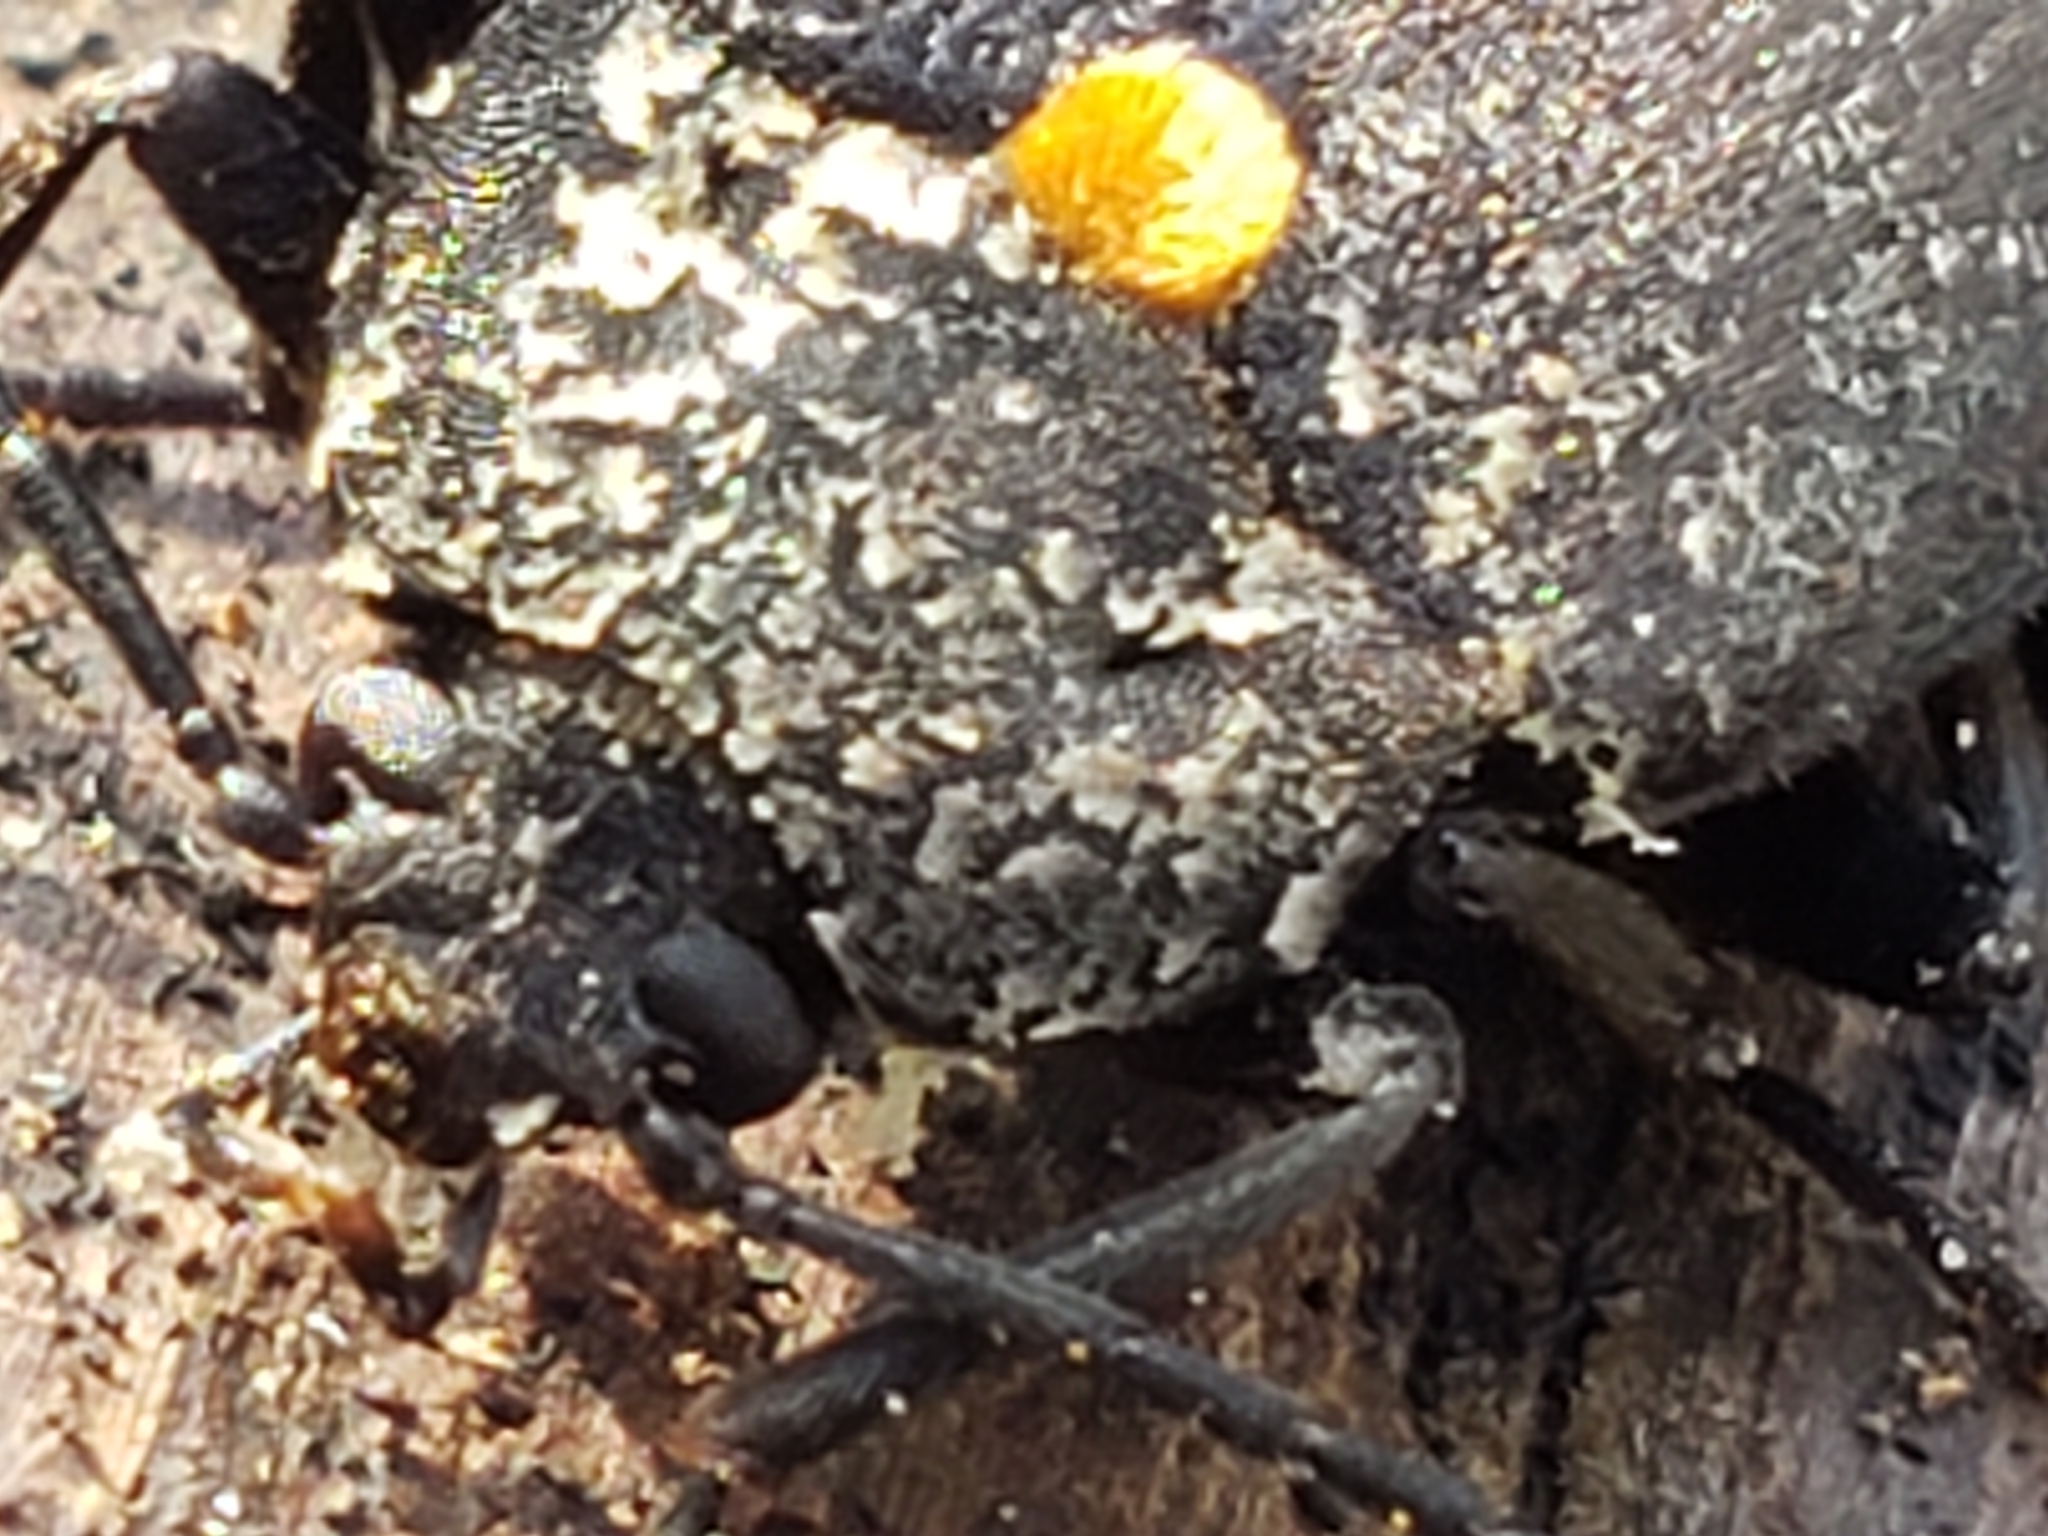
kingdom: Animalia
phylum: Arthropoda
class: Insecta
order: Coleoptera
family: Tetratomidae
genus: Penthe
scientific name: Penthe obliquata
